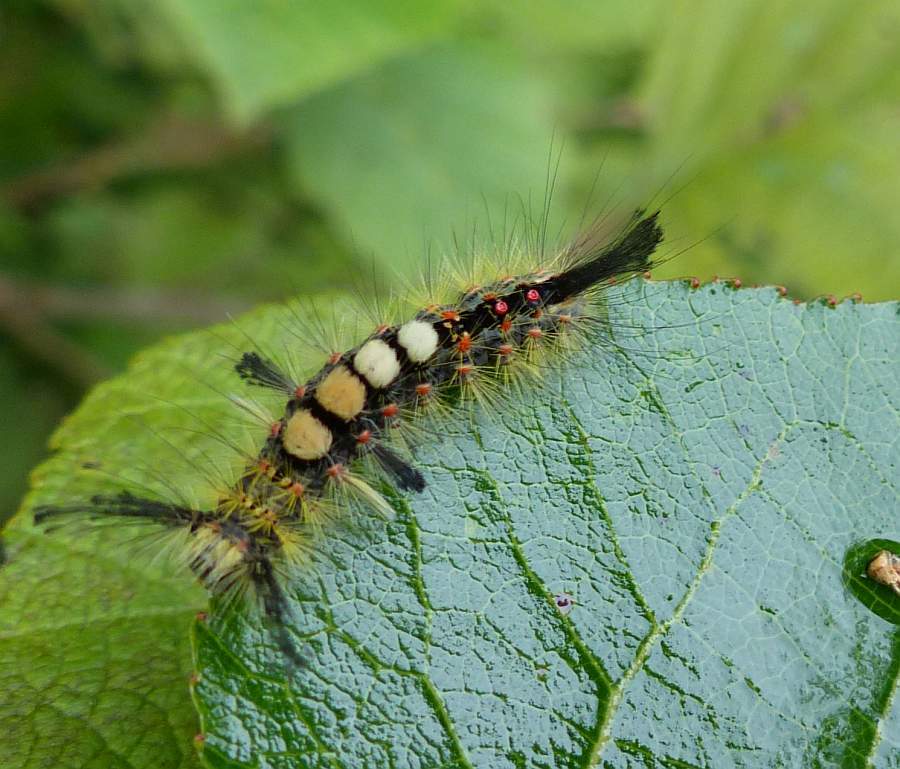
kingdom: Animalia
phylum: Arthropoda
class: Insecta
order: Lepidoptera
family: Erebidae
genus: Orgyia
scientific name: Orgyia antiqua
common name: Vapourer
